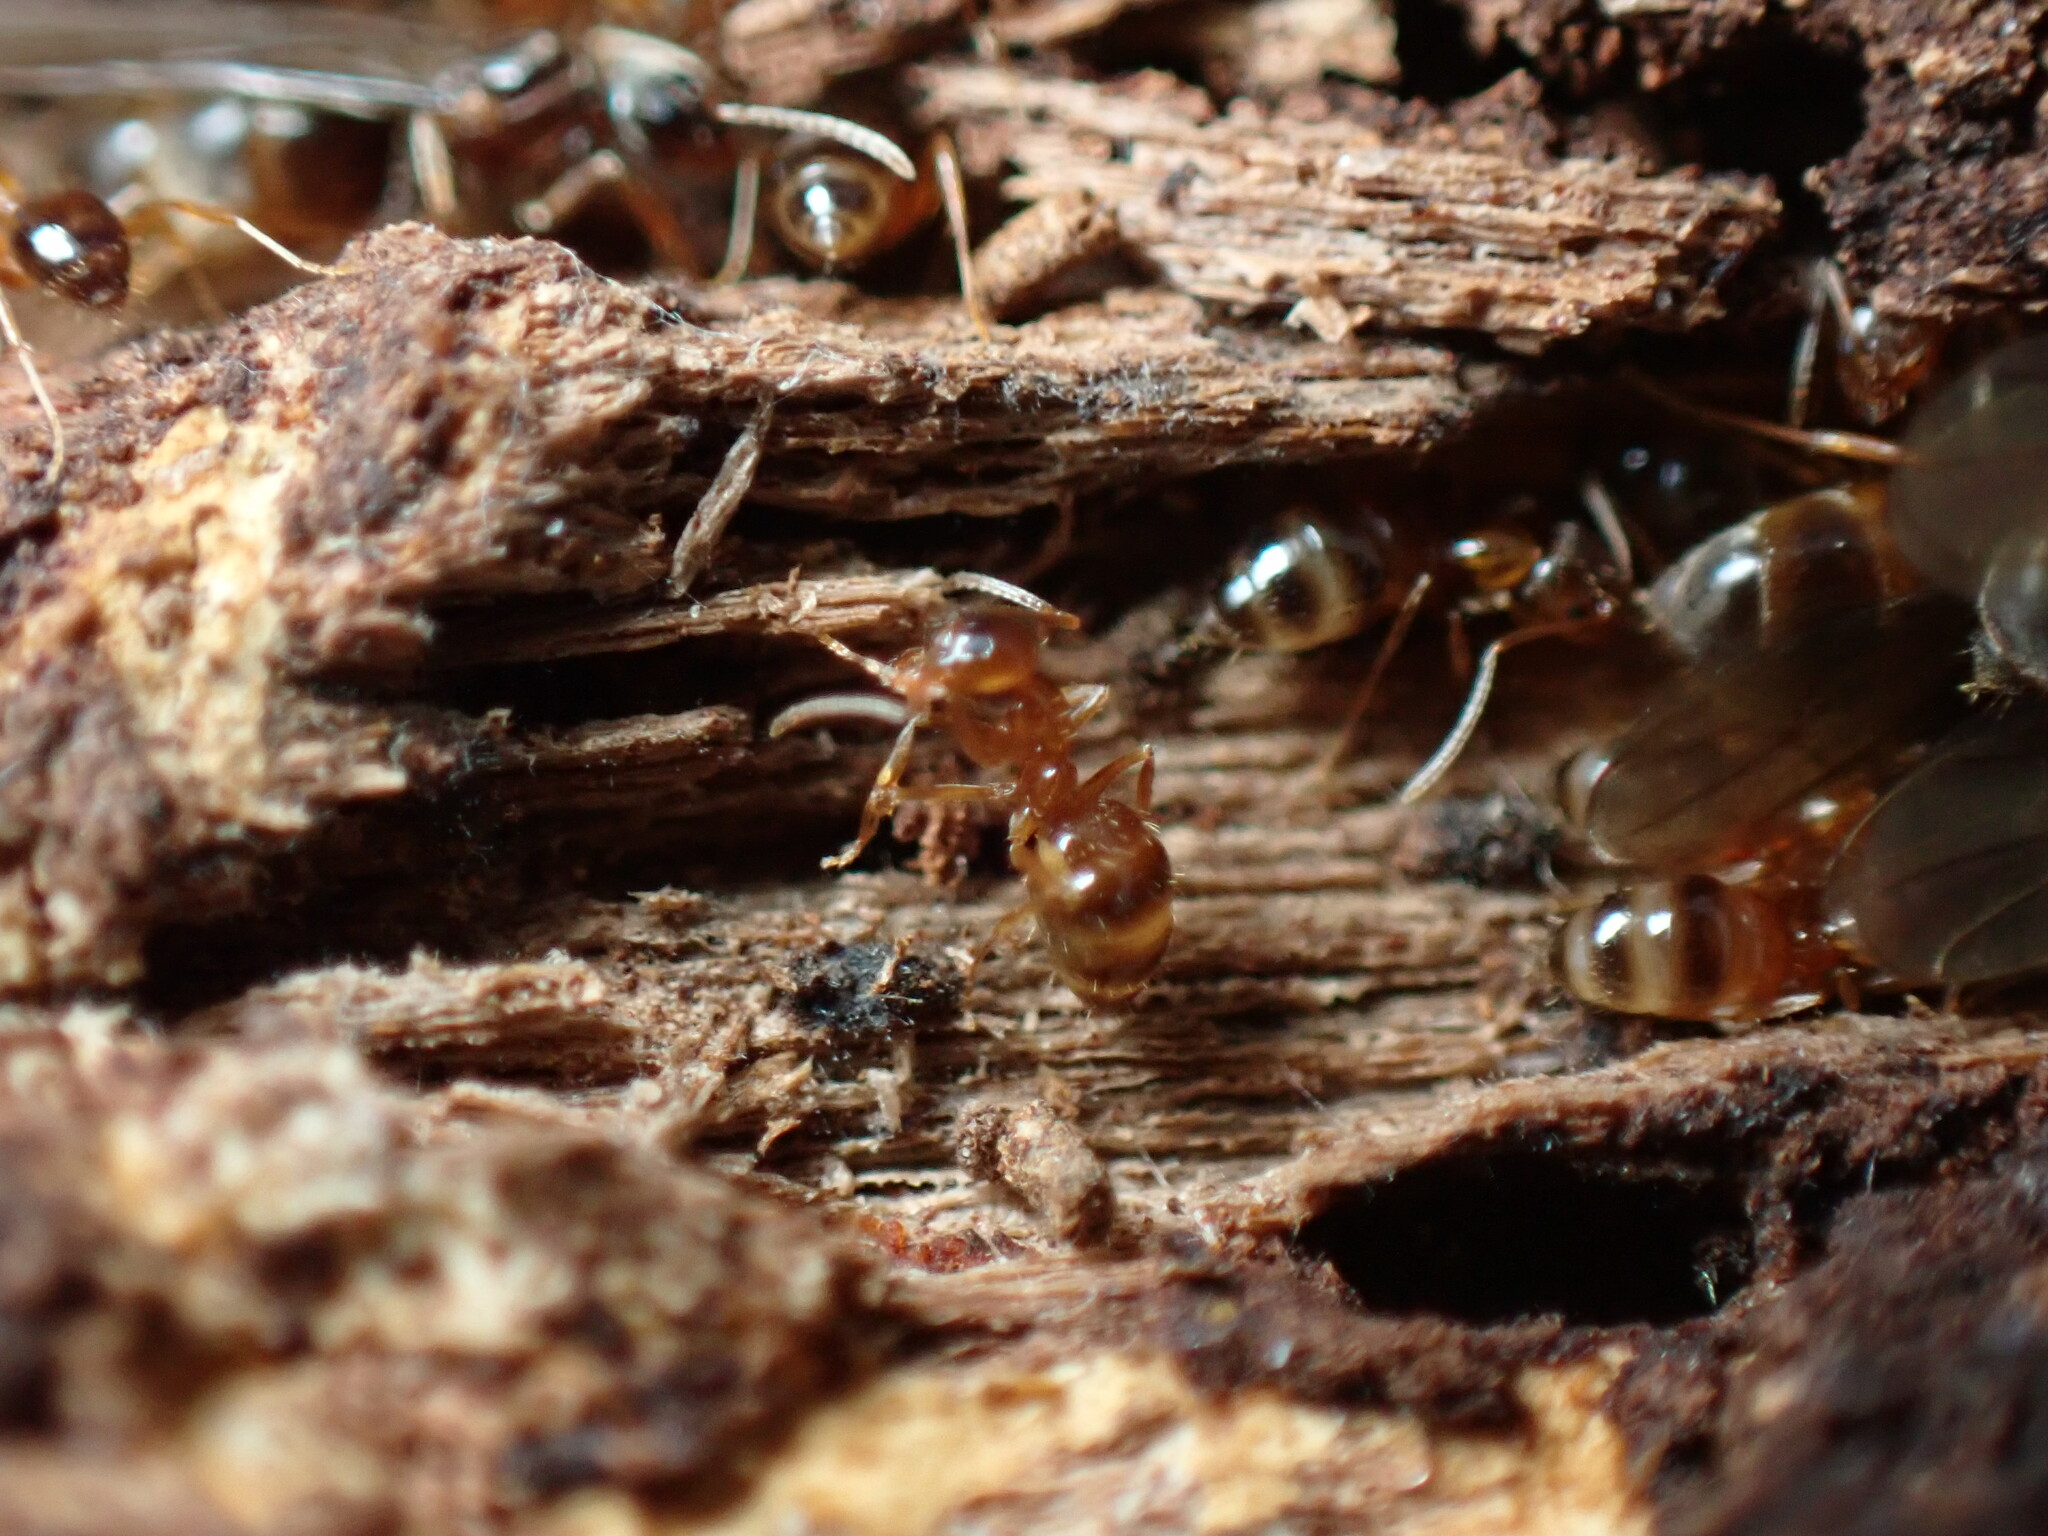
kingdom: Animalia
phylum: Arthropoda
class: Insecta
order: Hymenoptera
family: Formicidae
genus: Paratrechina
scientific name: Paratrechina flavipes
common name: Eastern asian formicine ant
